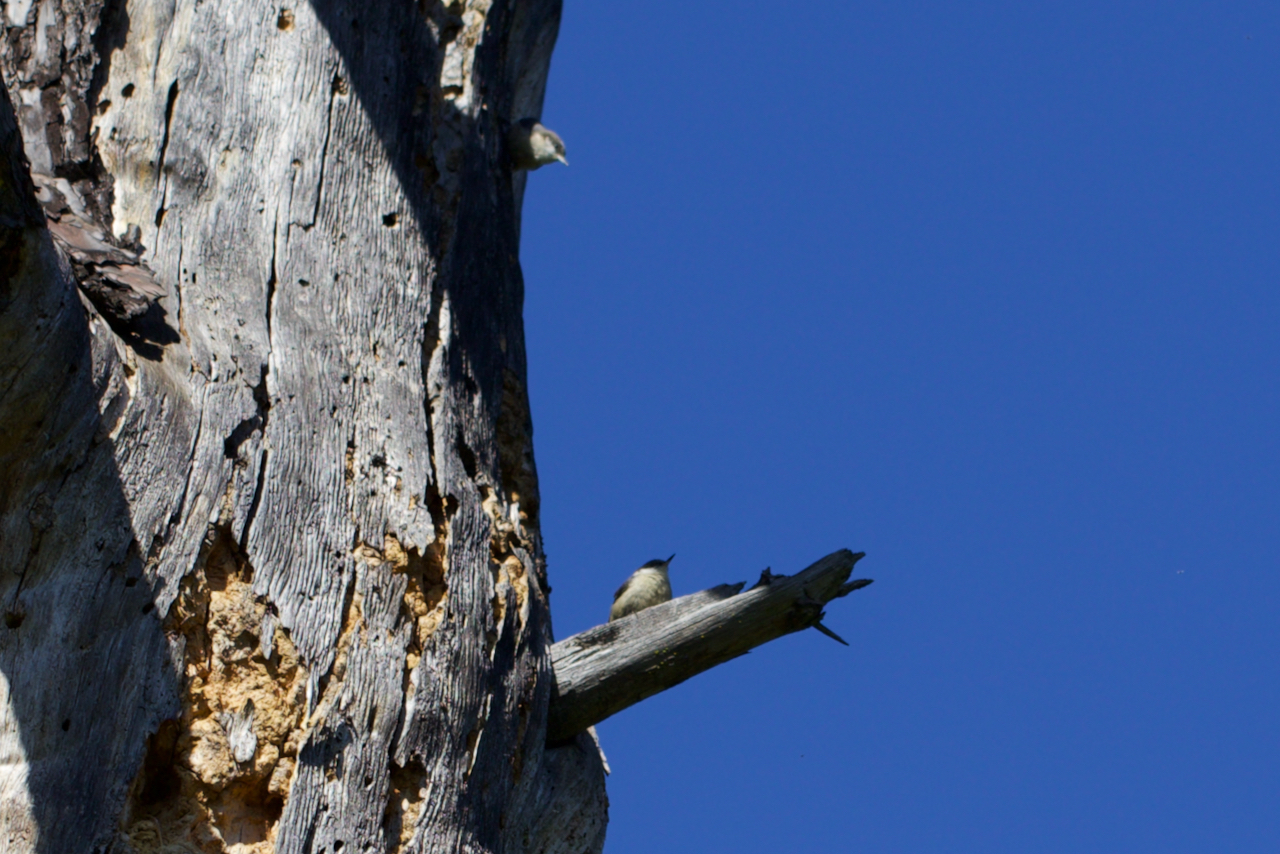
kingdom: Animalia
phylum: Chordata
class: Aves
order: Passeriformes
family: Sittidae
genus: Sitta
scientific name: Sitta pygmaea
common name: Pygmy nuthatch
